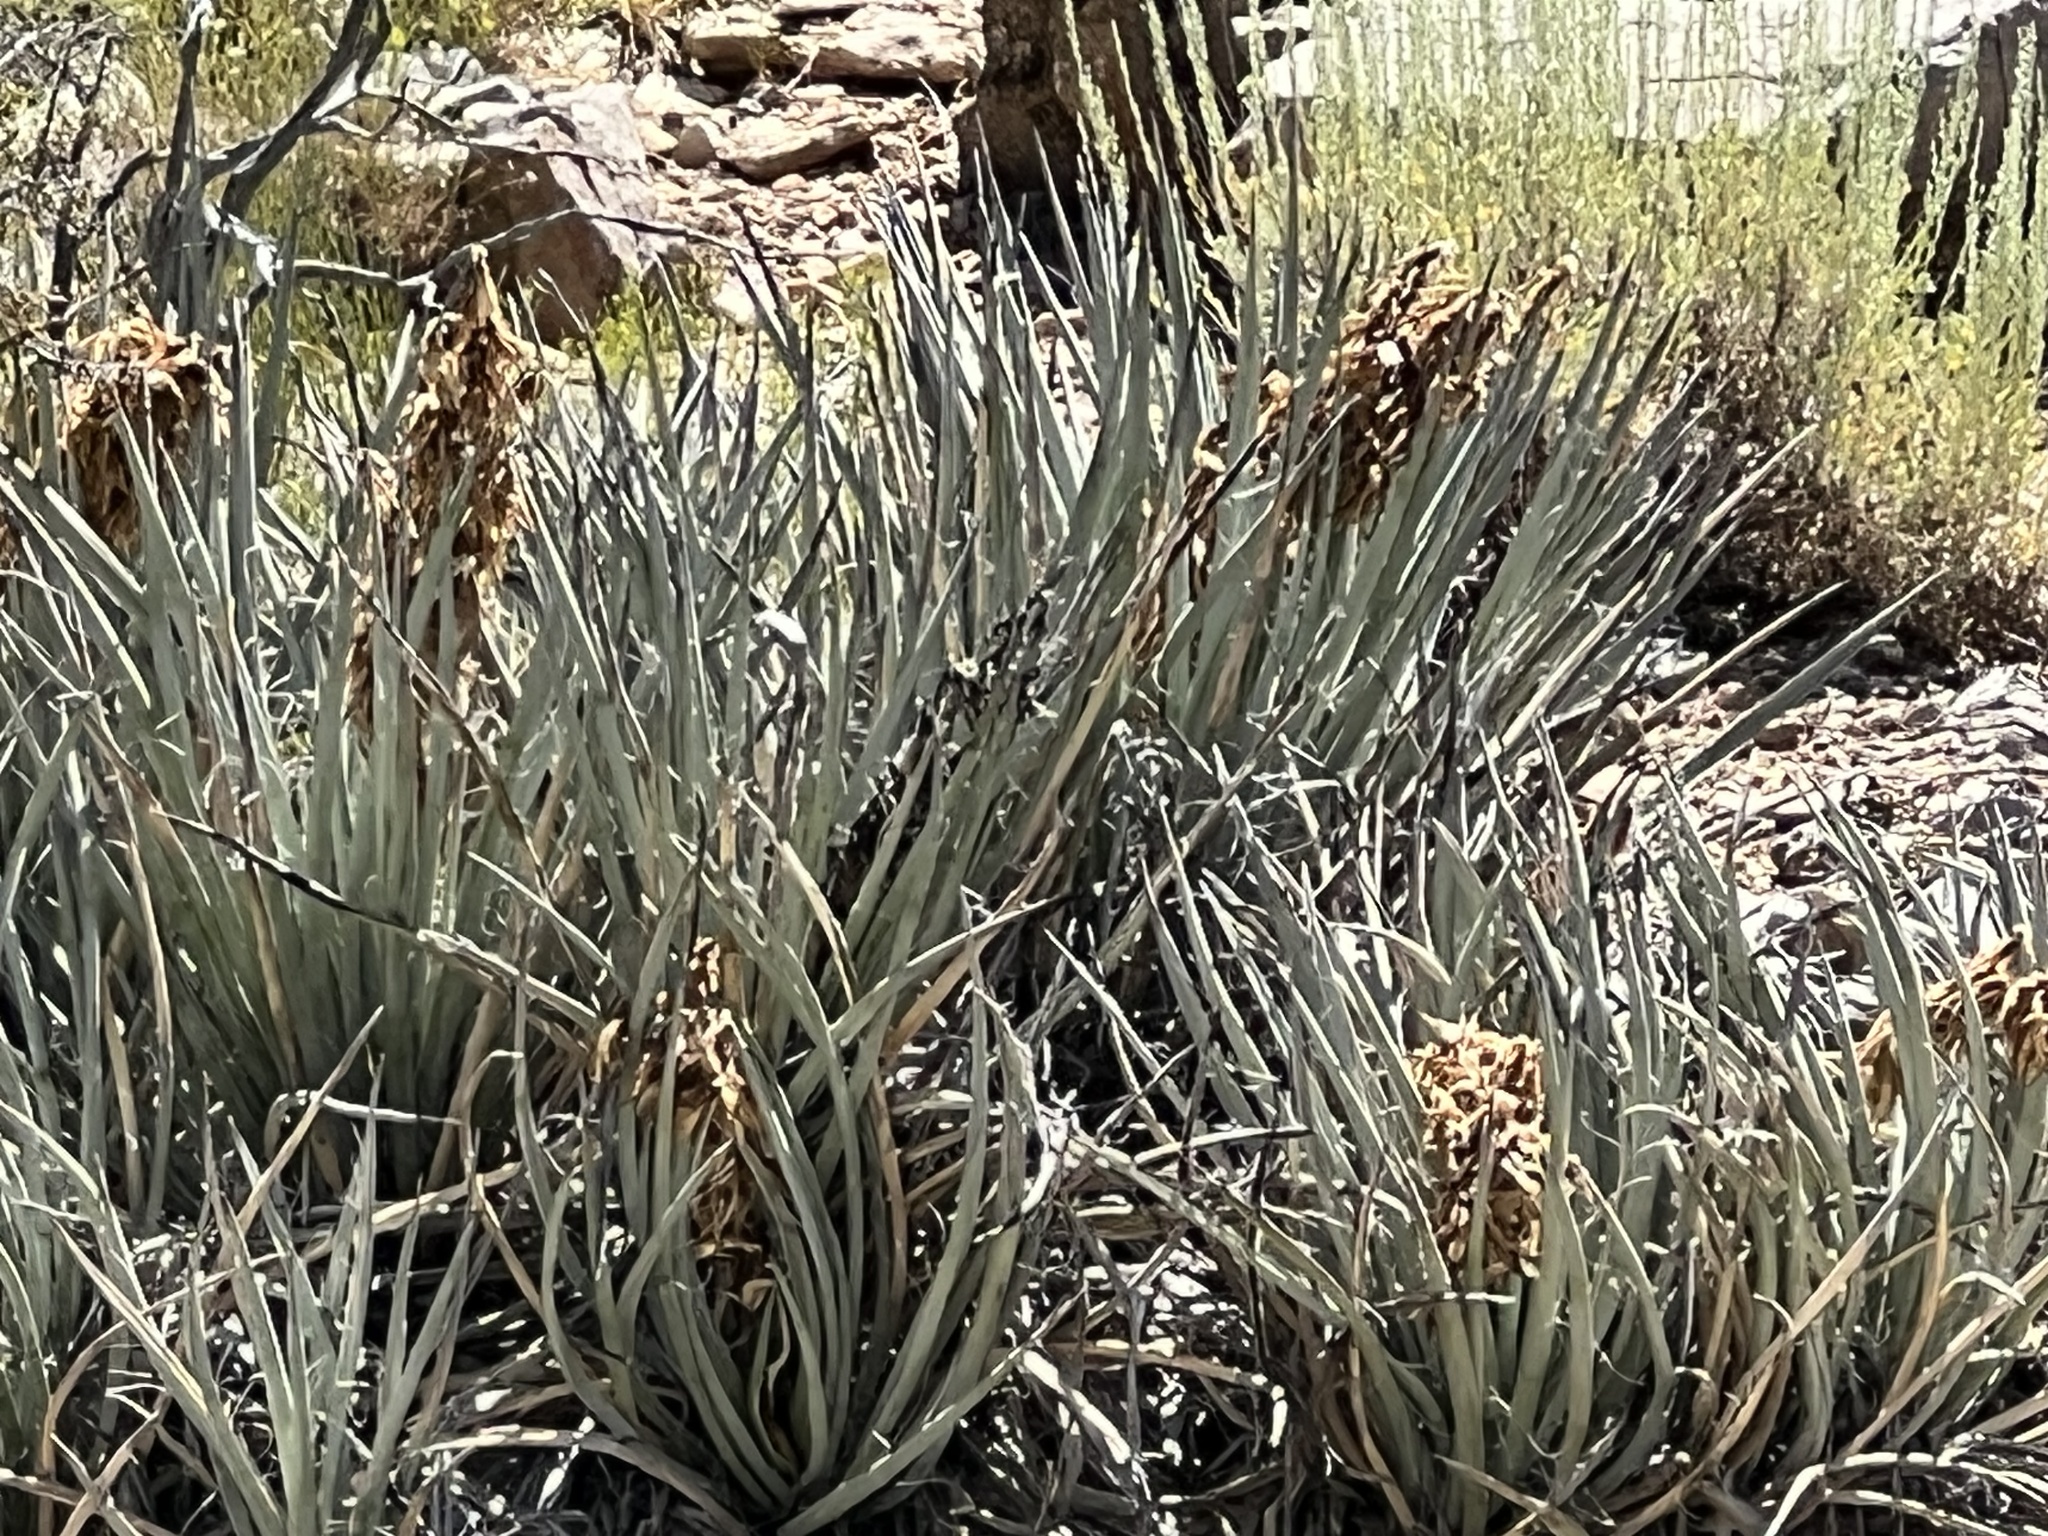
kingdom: Plantae
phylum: Tracheophyta
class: Liliopsida
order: Asparagales
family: Asparagaceae
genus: Yucca
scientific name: Yucca baccata
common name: Banana yucca
